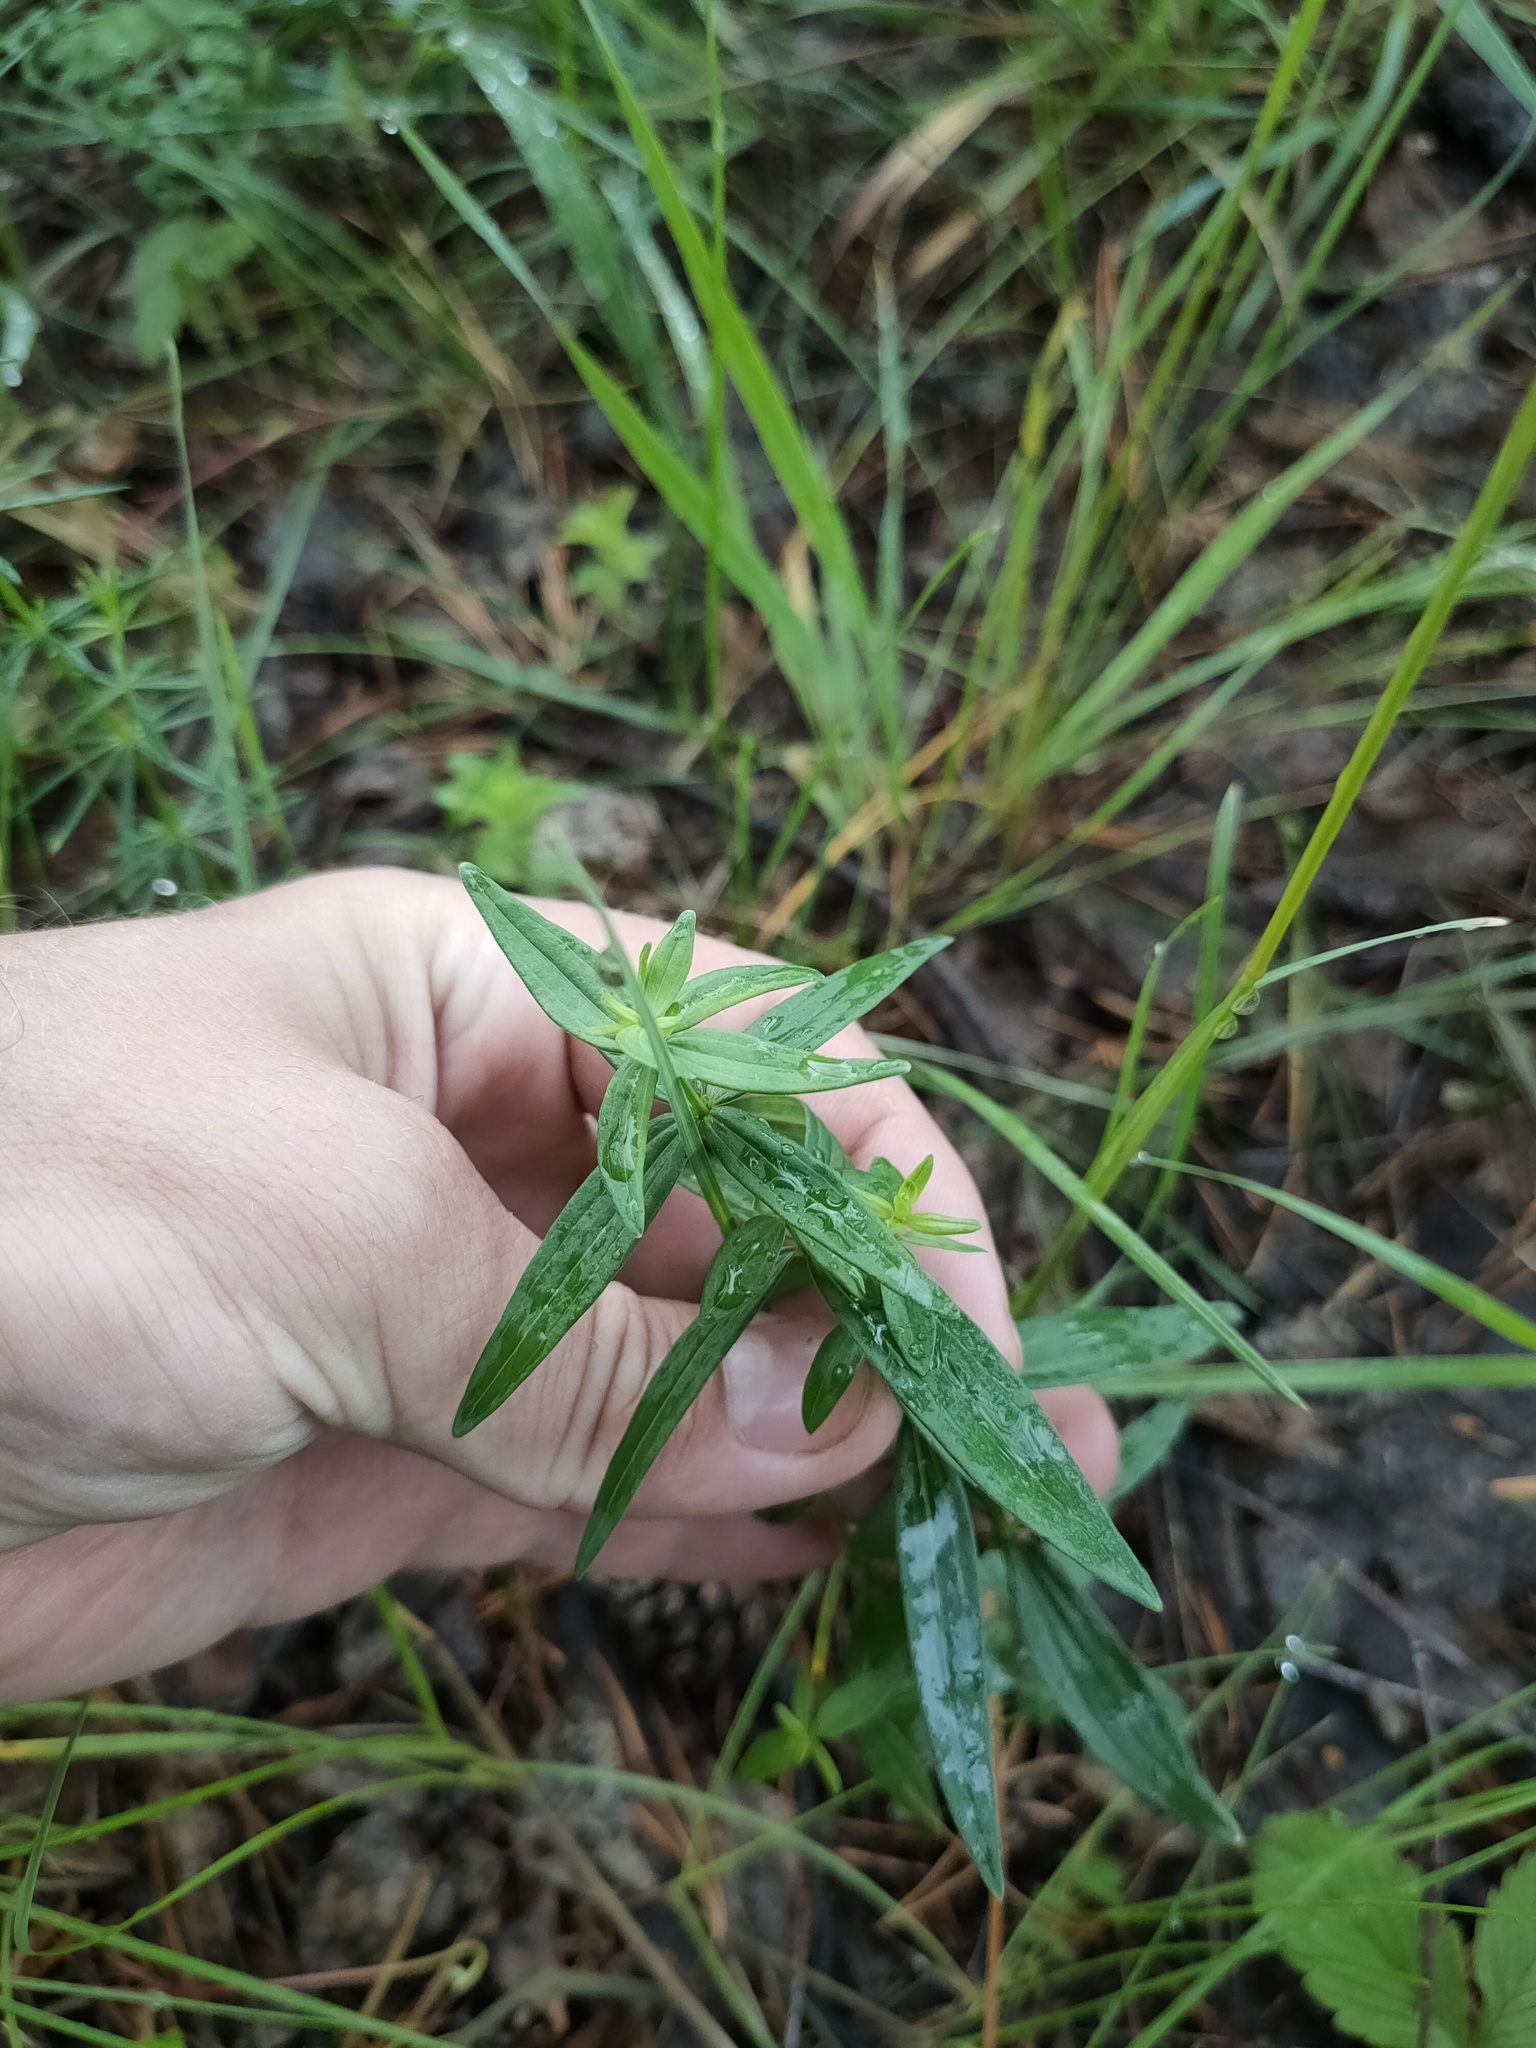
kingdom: Plantae
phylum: Tracheophyta
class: Magnoliopsida
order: Gentianales
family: Rubiaceae
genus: Galium
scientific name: Galium boreale
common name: Northern bedstraw
